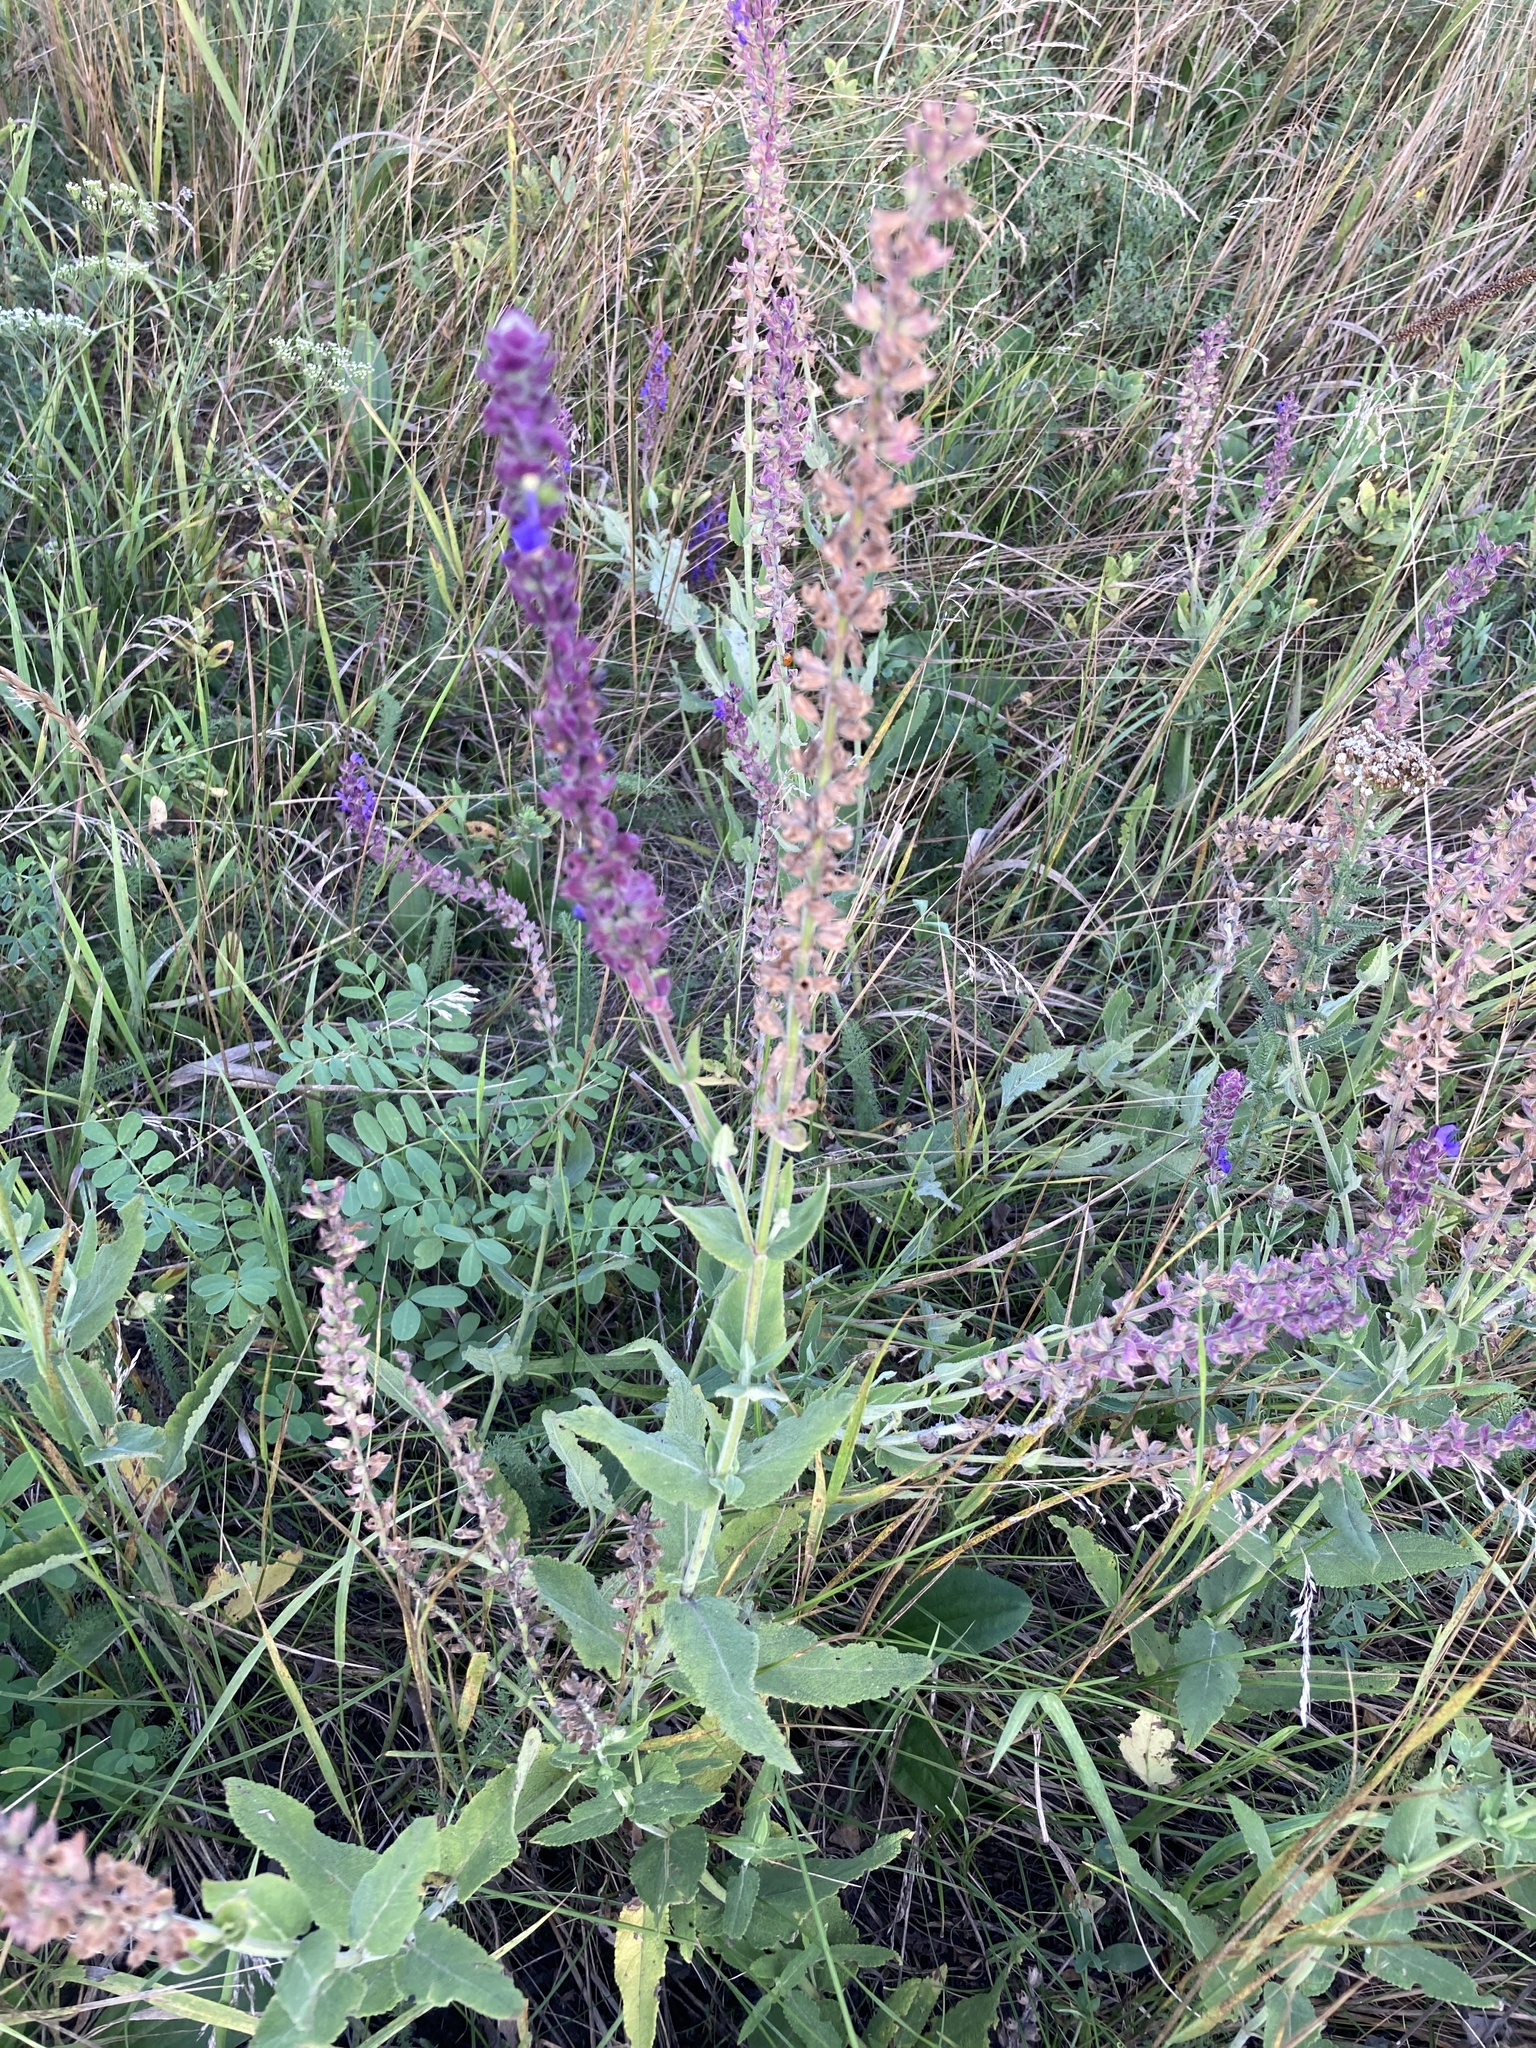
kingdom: Plantae
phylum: Tracheophyta
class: Magnoliopsida
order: Lamiales
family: Lamiaceae
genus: Salvia
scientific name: Salvia nemorosa
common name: Balkan clary
